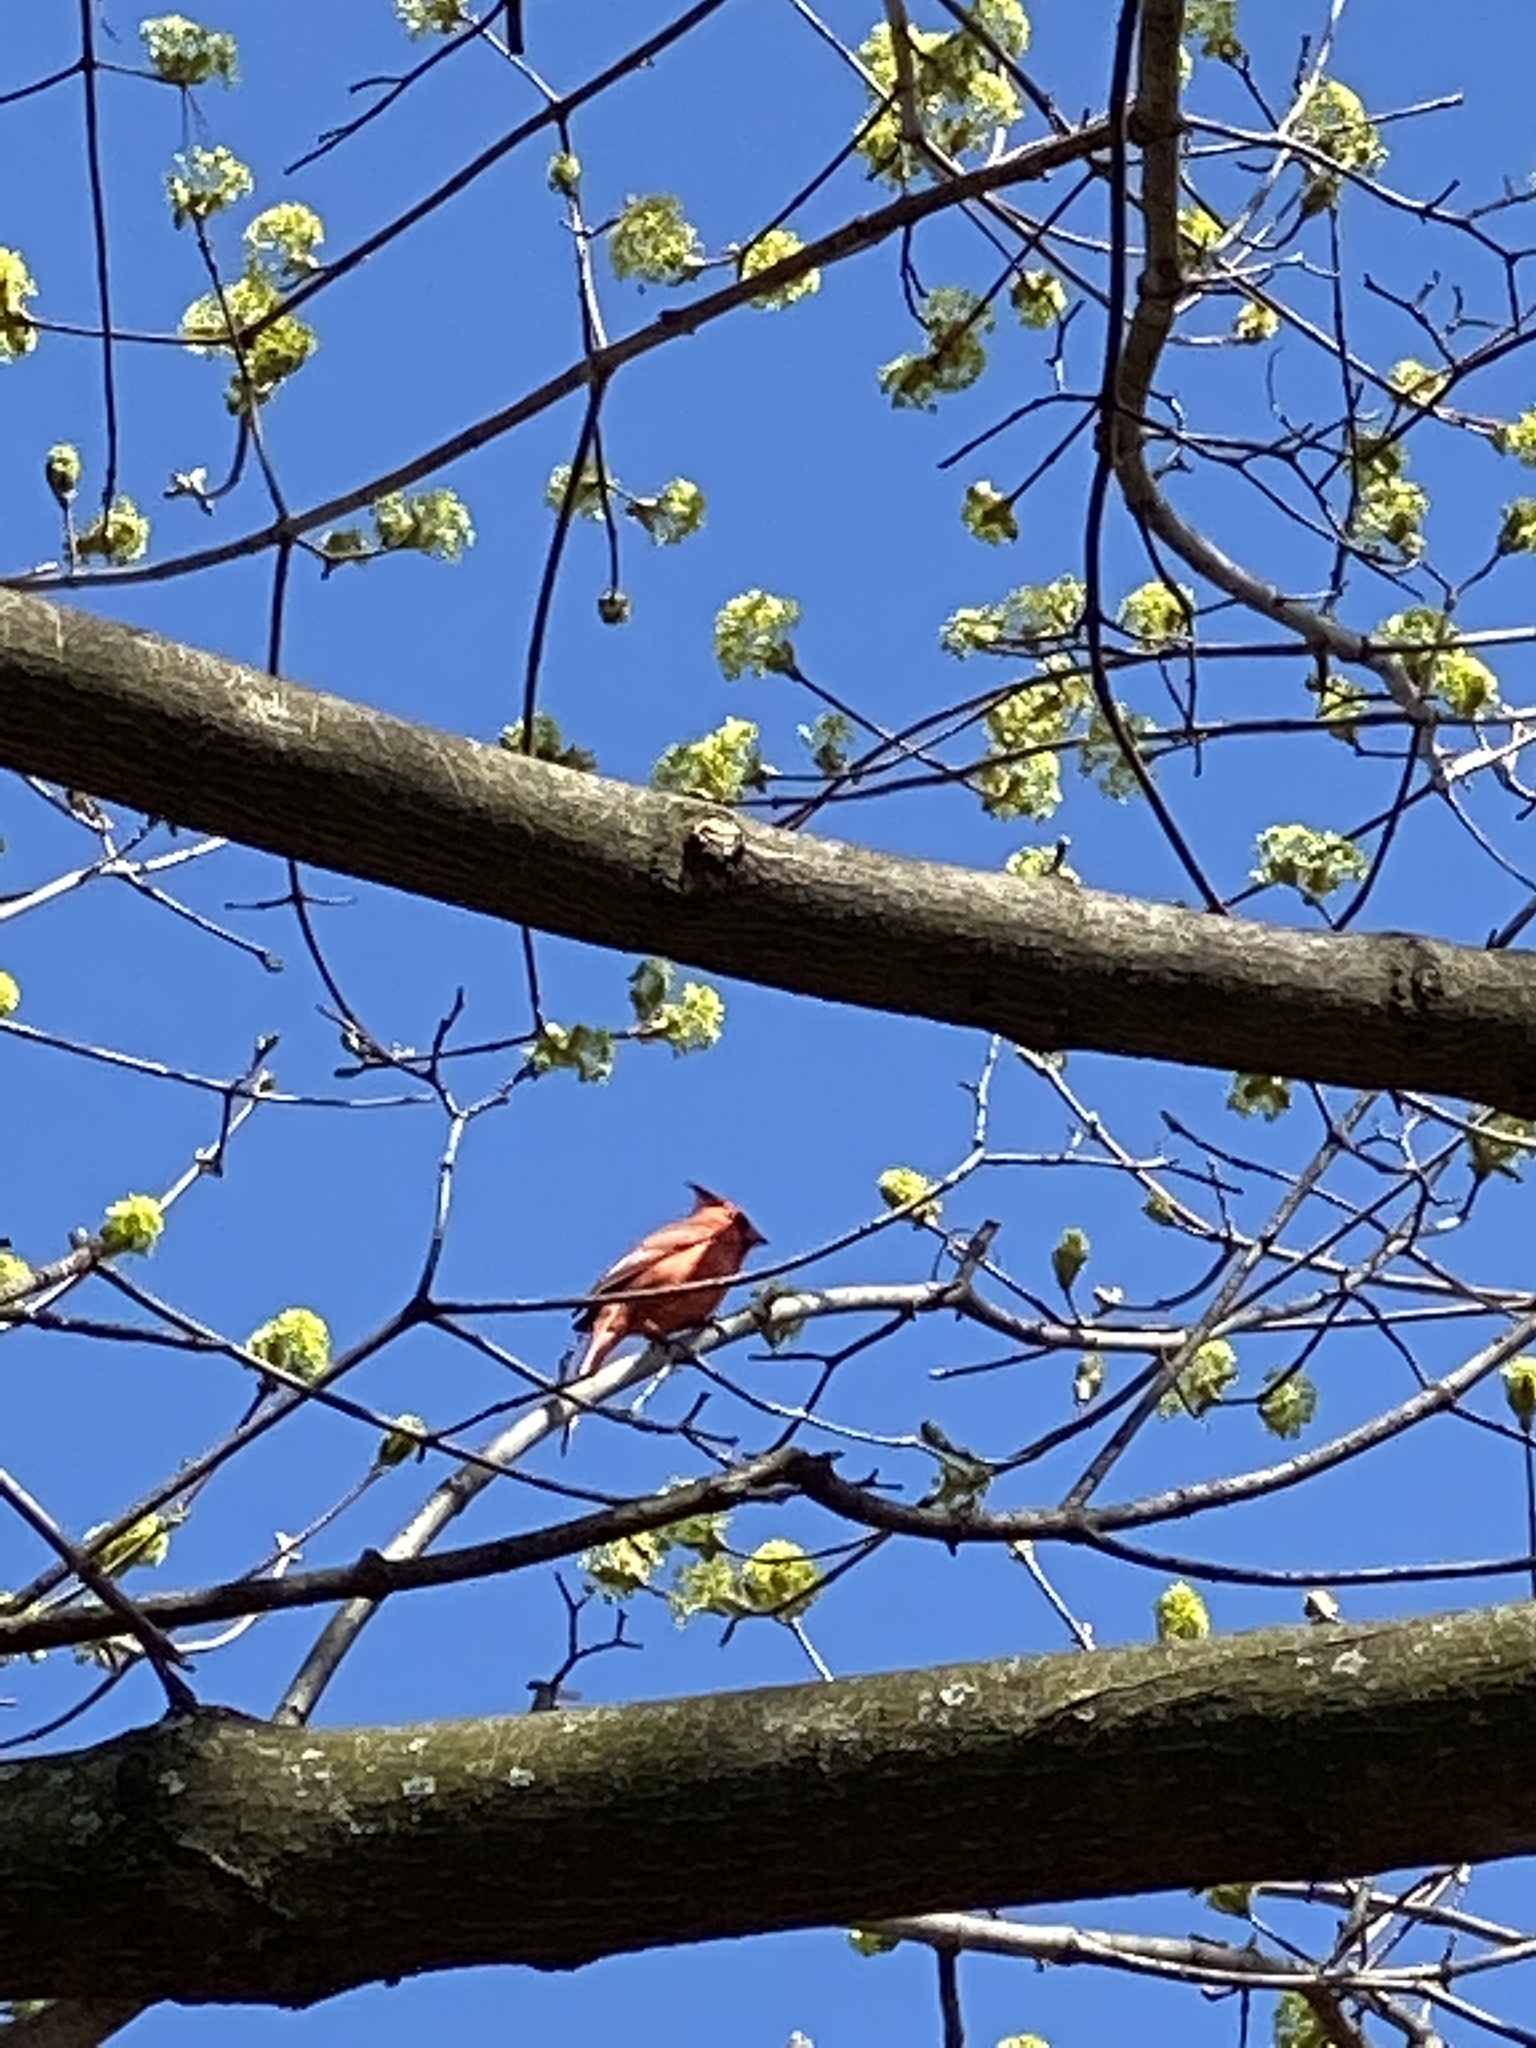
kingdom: Animalia
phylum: Chordata
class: Aves
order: Passeriformes
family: Cardinalidae
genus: Cardinalis
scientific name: Cardinalis cardinalis
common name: Northern cardinal
